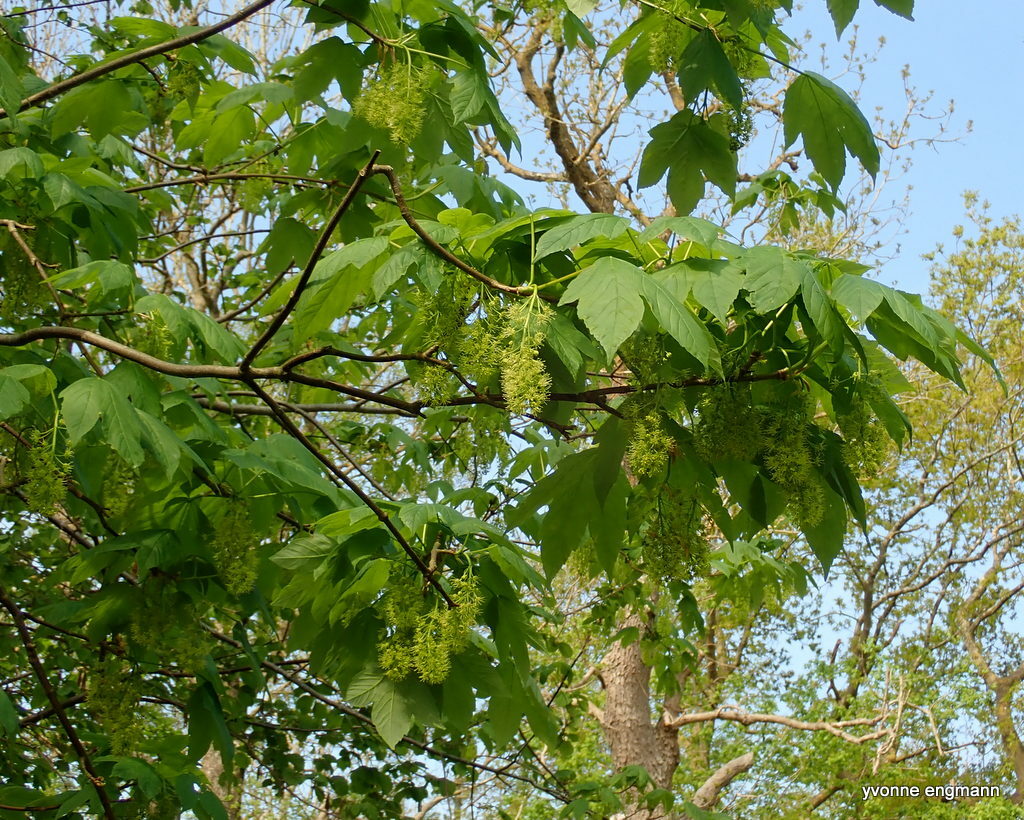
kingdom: Plantae
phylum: Tracheophyta
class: Magnoliopsida
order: Sapindales
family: Sapindaceae
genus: Acer
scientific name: Acer pseudoplatanus
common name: Sycamore
